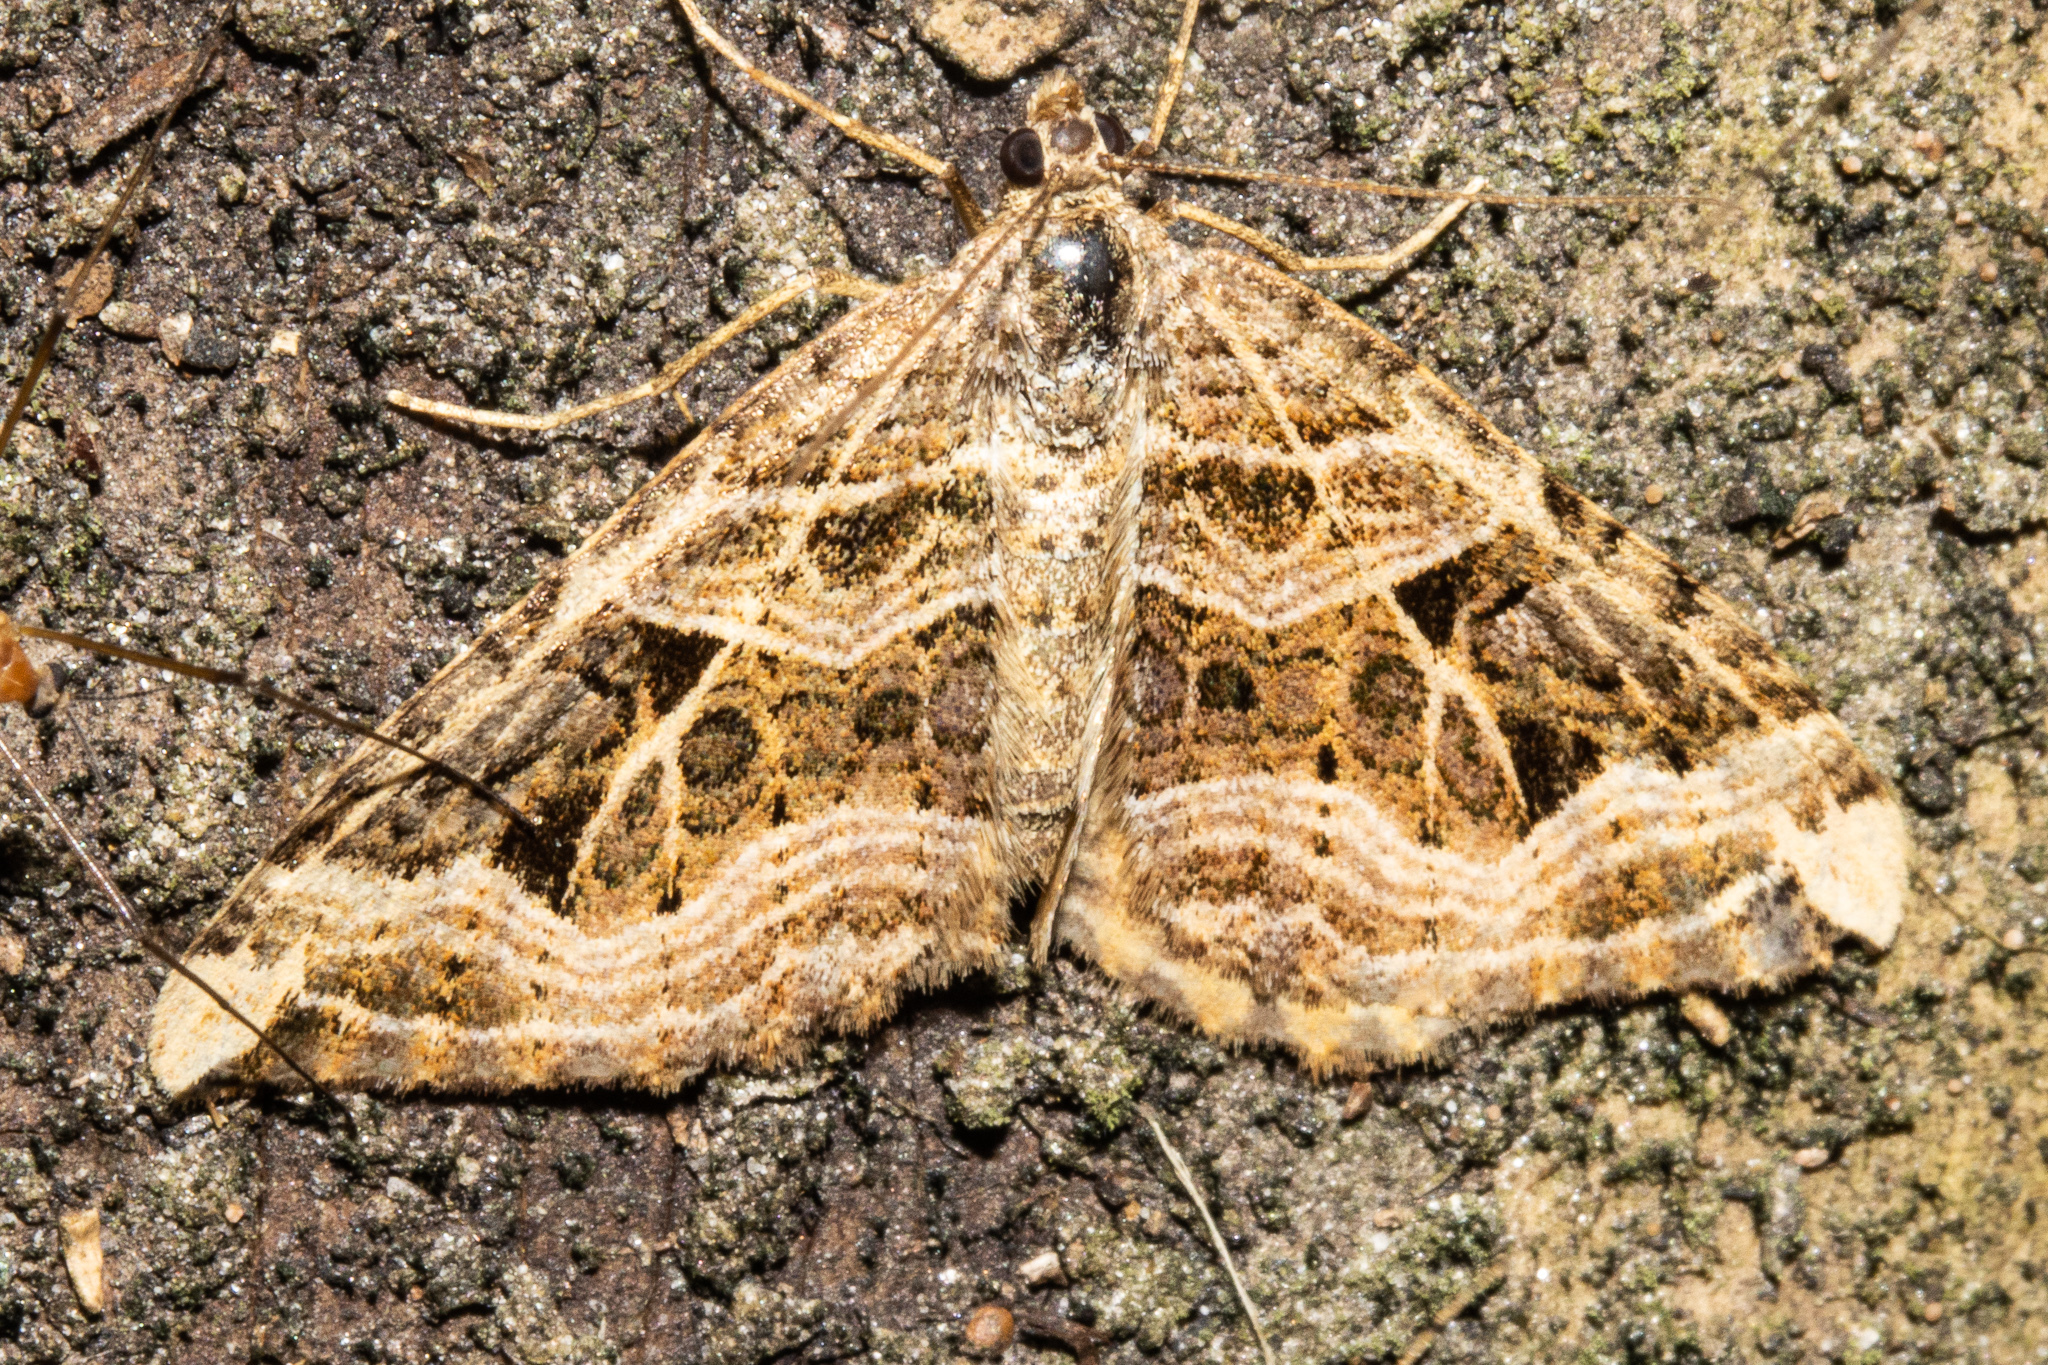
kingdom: Animalia
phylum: Arthropoda
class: Insecta
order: Lepidoptera
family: Geometridae
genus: Xanthorhoe
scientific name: Xanthorhoe semifissata
